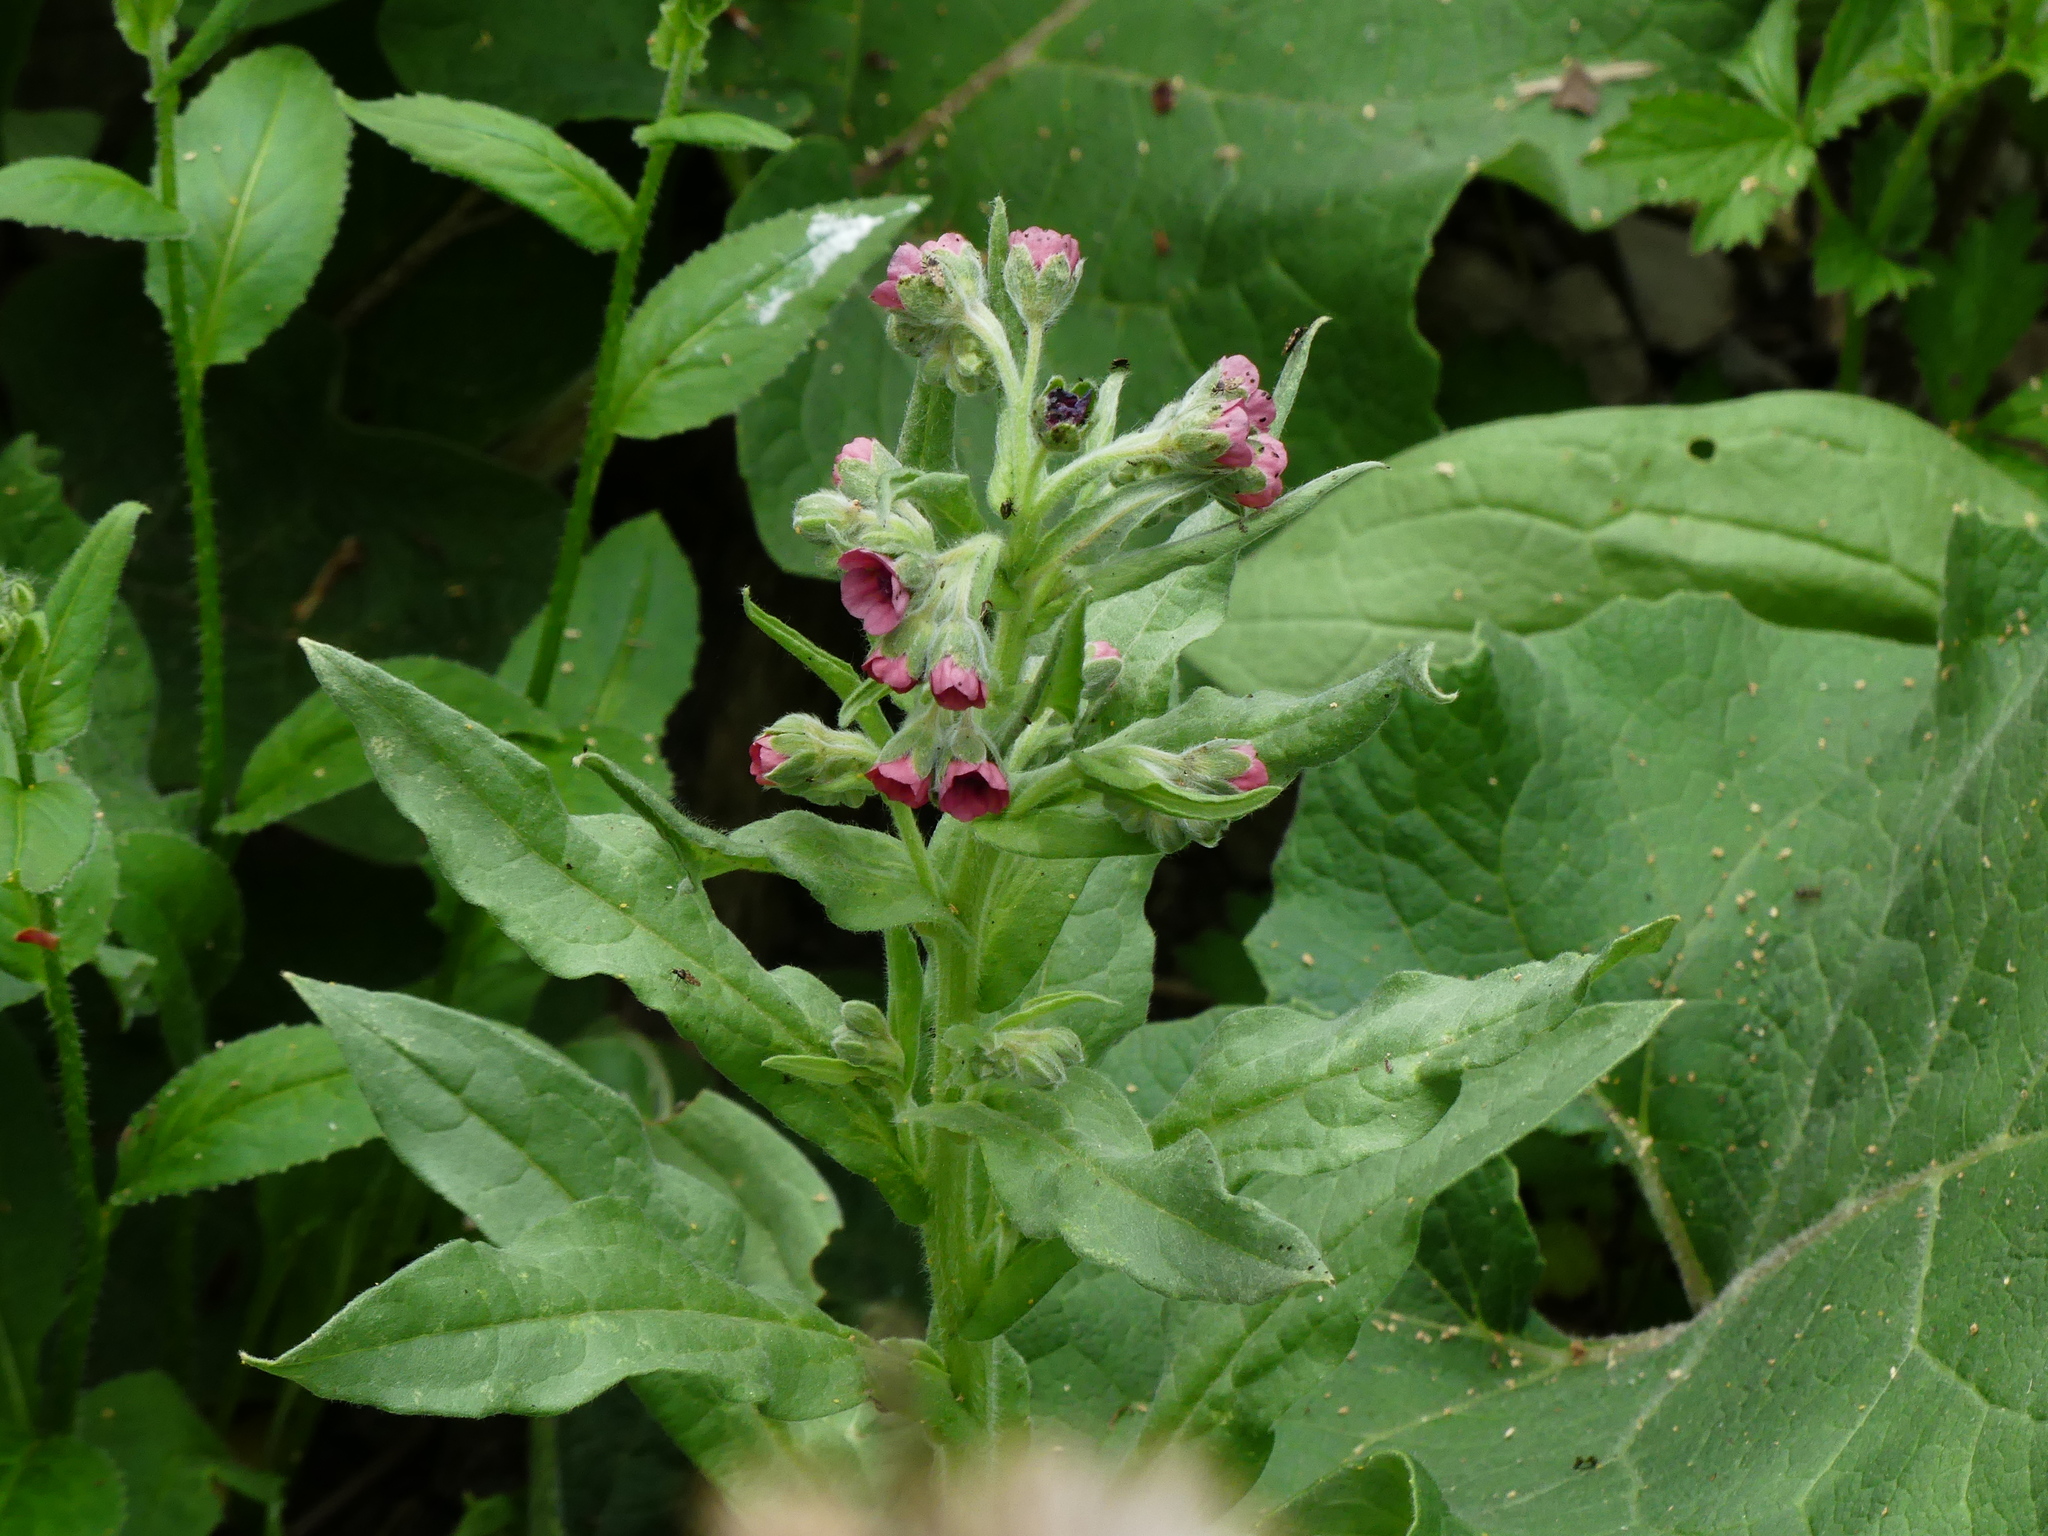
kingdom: Plantae
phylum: Tracheophyta
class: Magnoliopsida
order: Boraginales
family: Boraginaceae
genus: Cynoglossum
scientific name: Cynoglossum officinale
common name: Hound's-tongue
